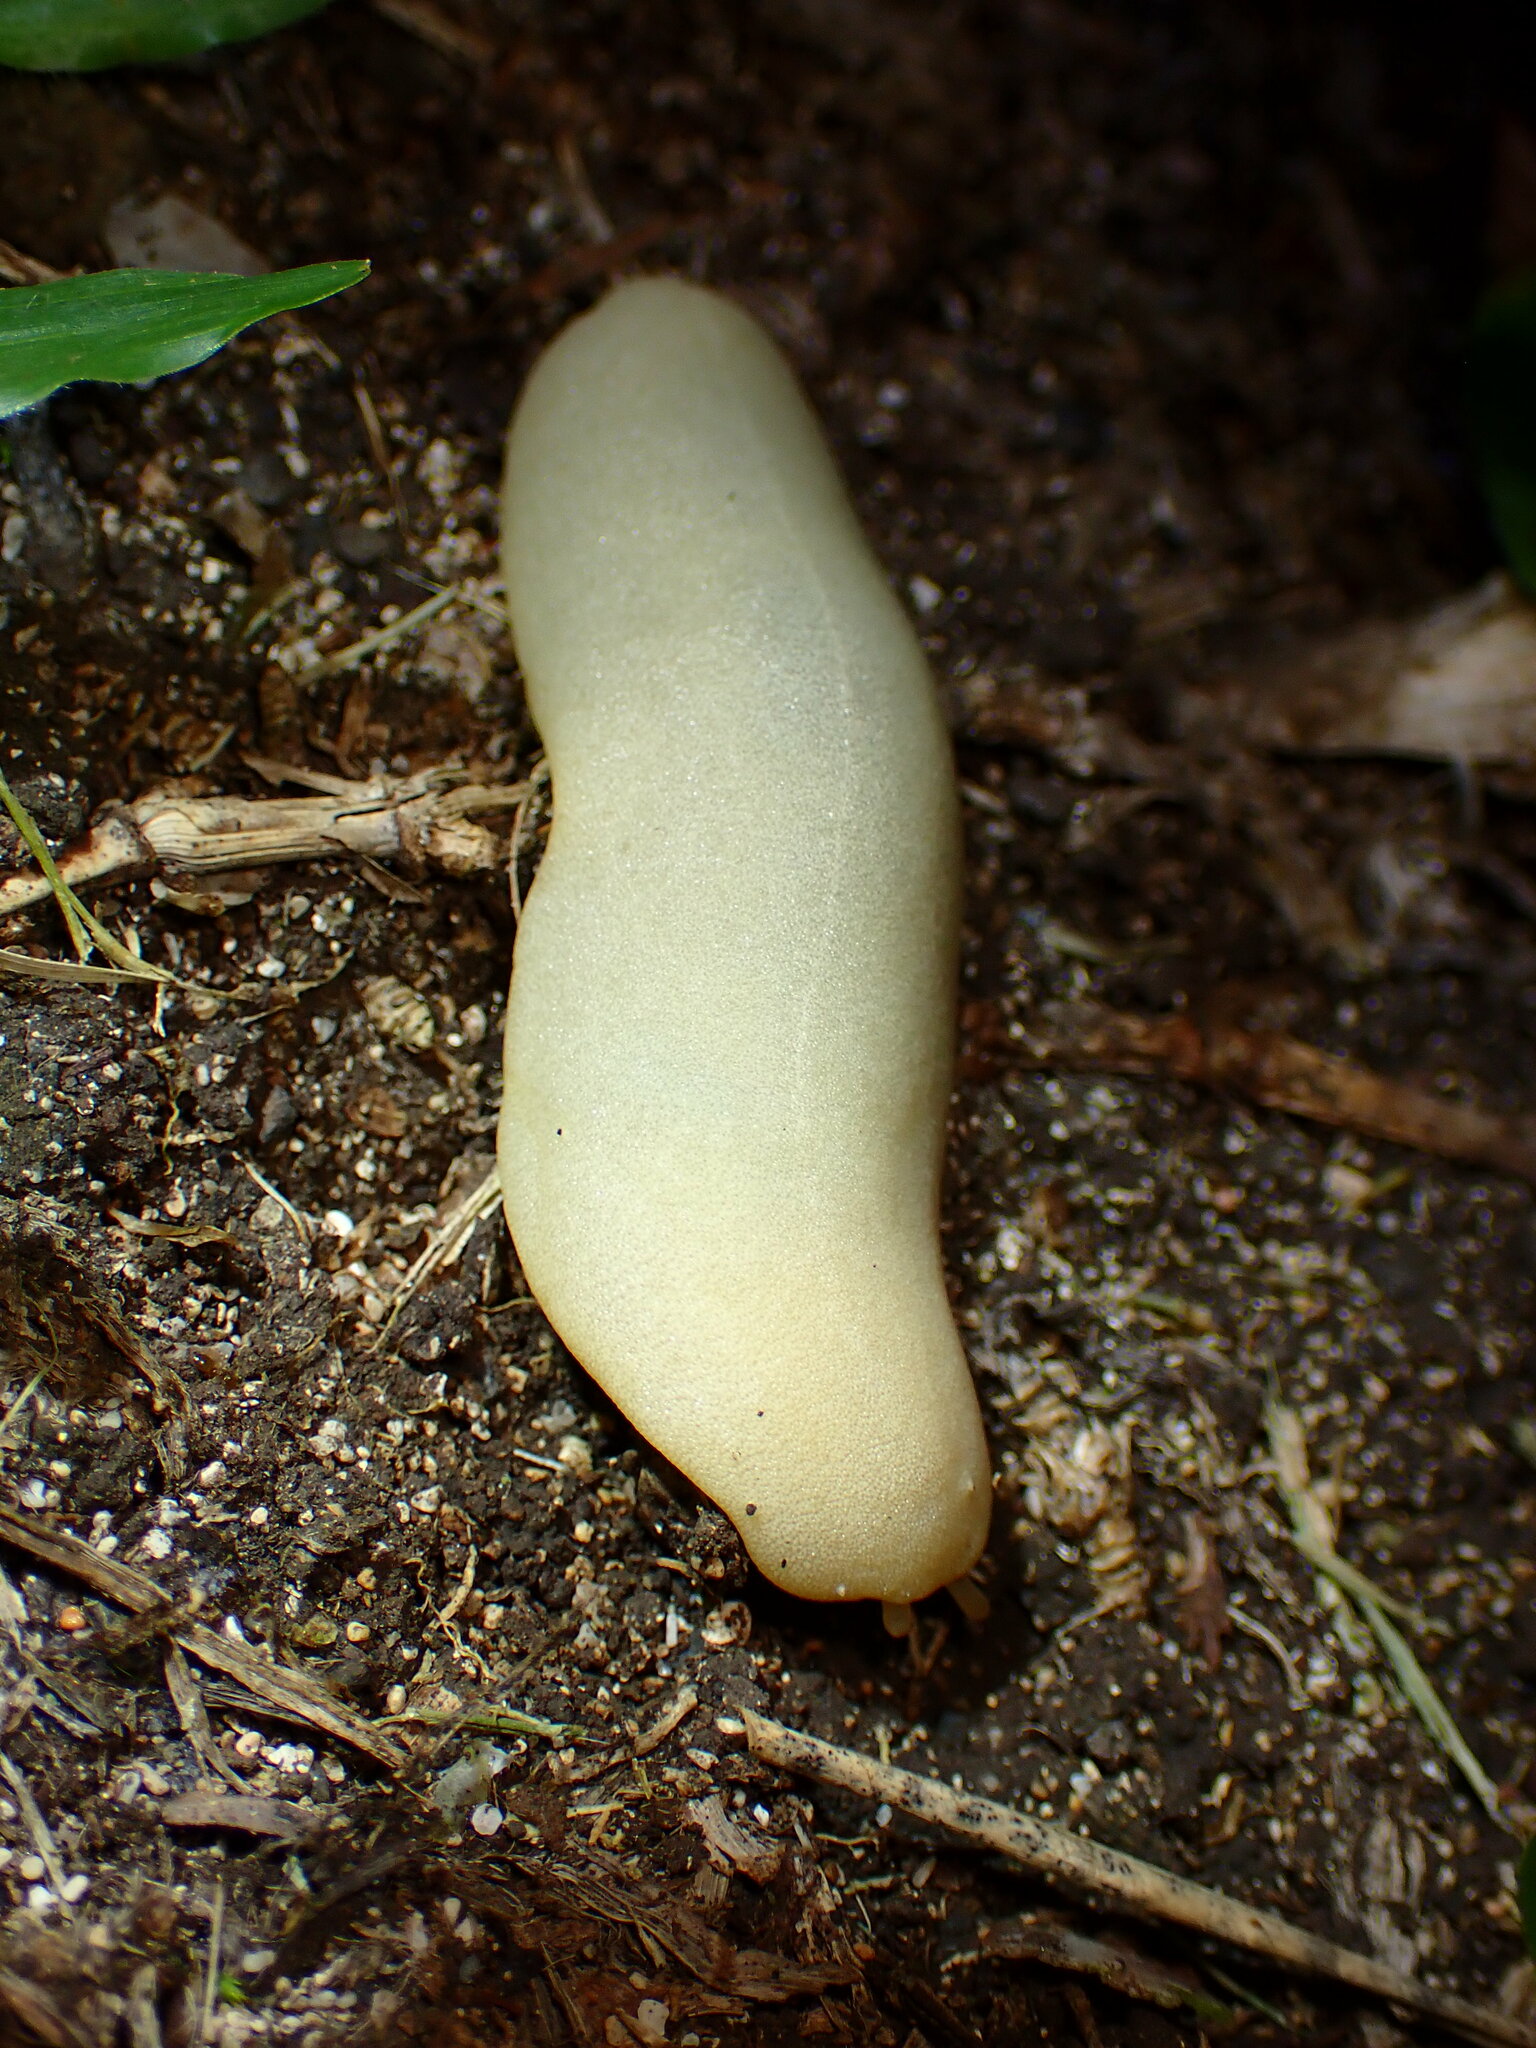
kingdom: Animalia
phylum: Mollusca
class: Gastropoda
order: Systellommatophora
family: Veronicellidae
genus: Veronicella
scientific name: Veronicella cubensis
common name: Two striped slug
